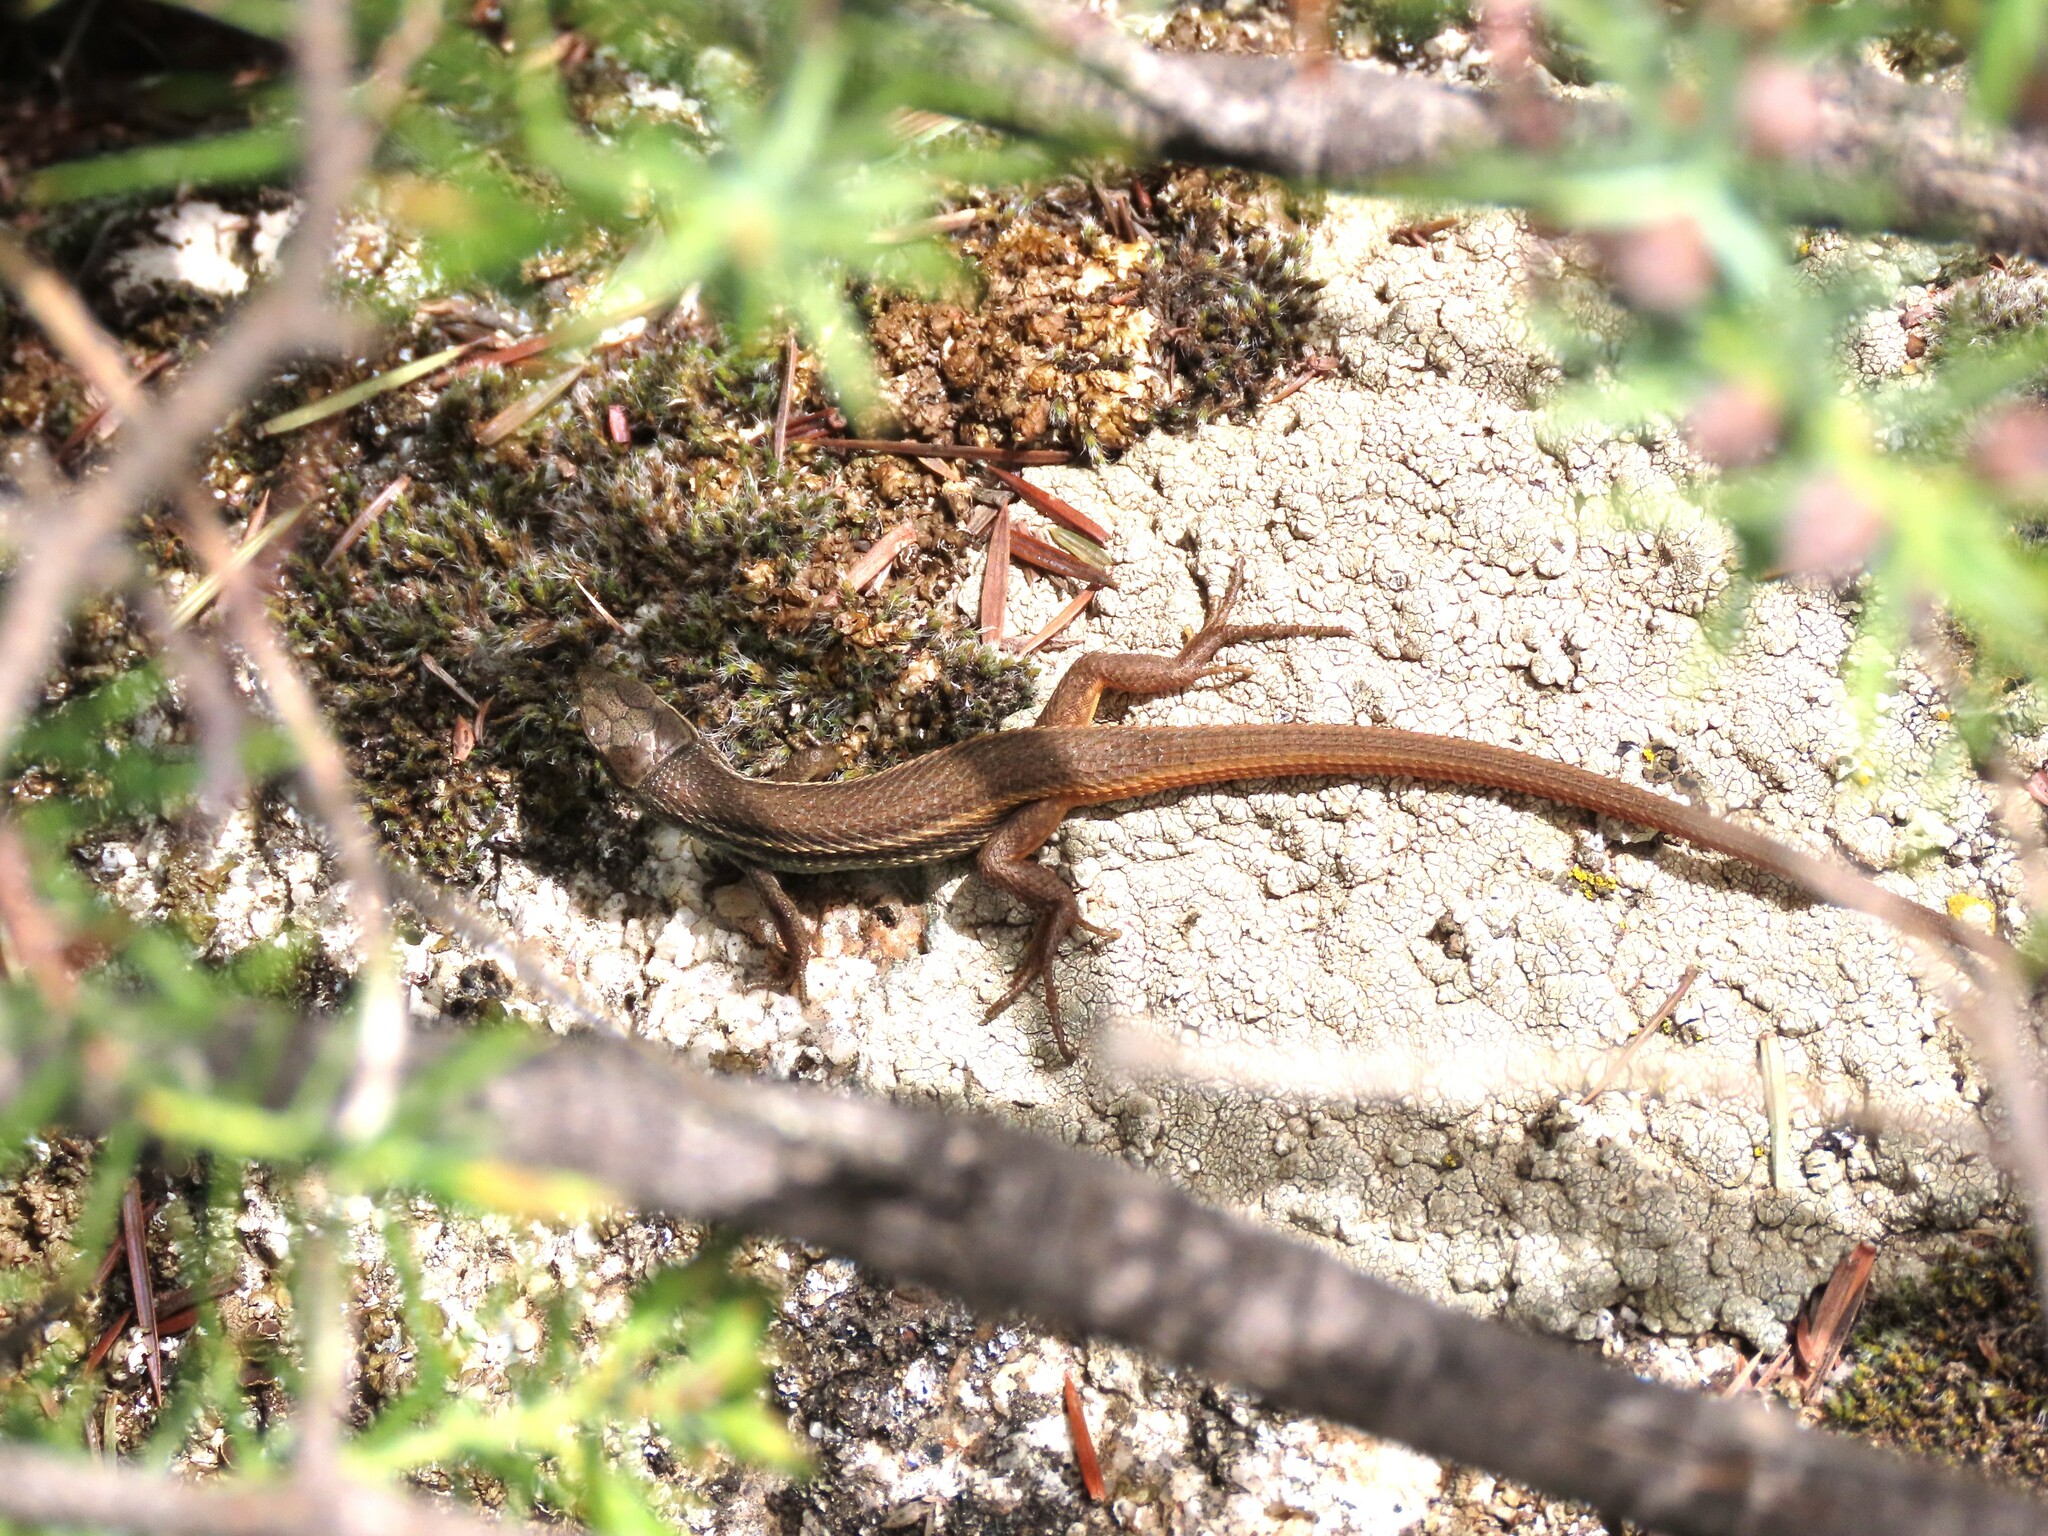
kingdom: Animalia
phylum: Chordata
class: Squamata
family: Lacertidae
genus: Psammodromus
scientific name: Psammodromus algirus
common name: Algerian psammodromus
